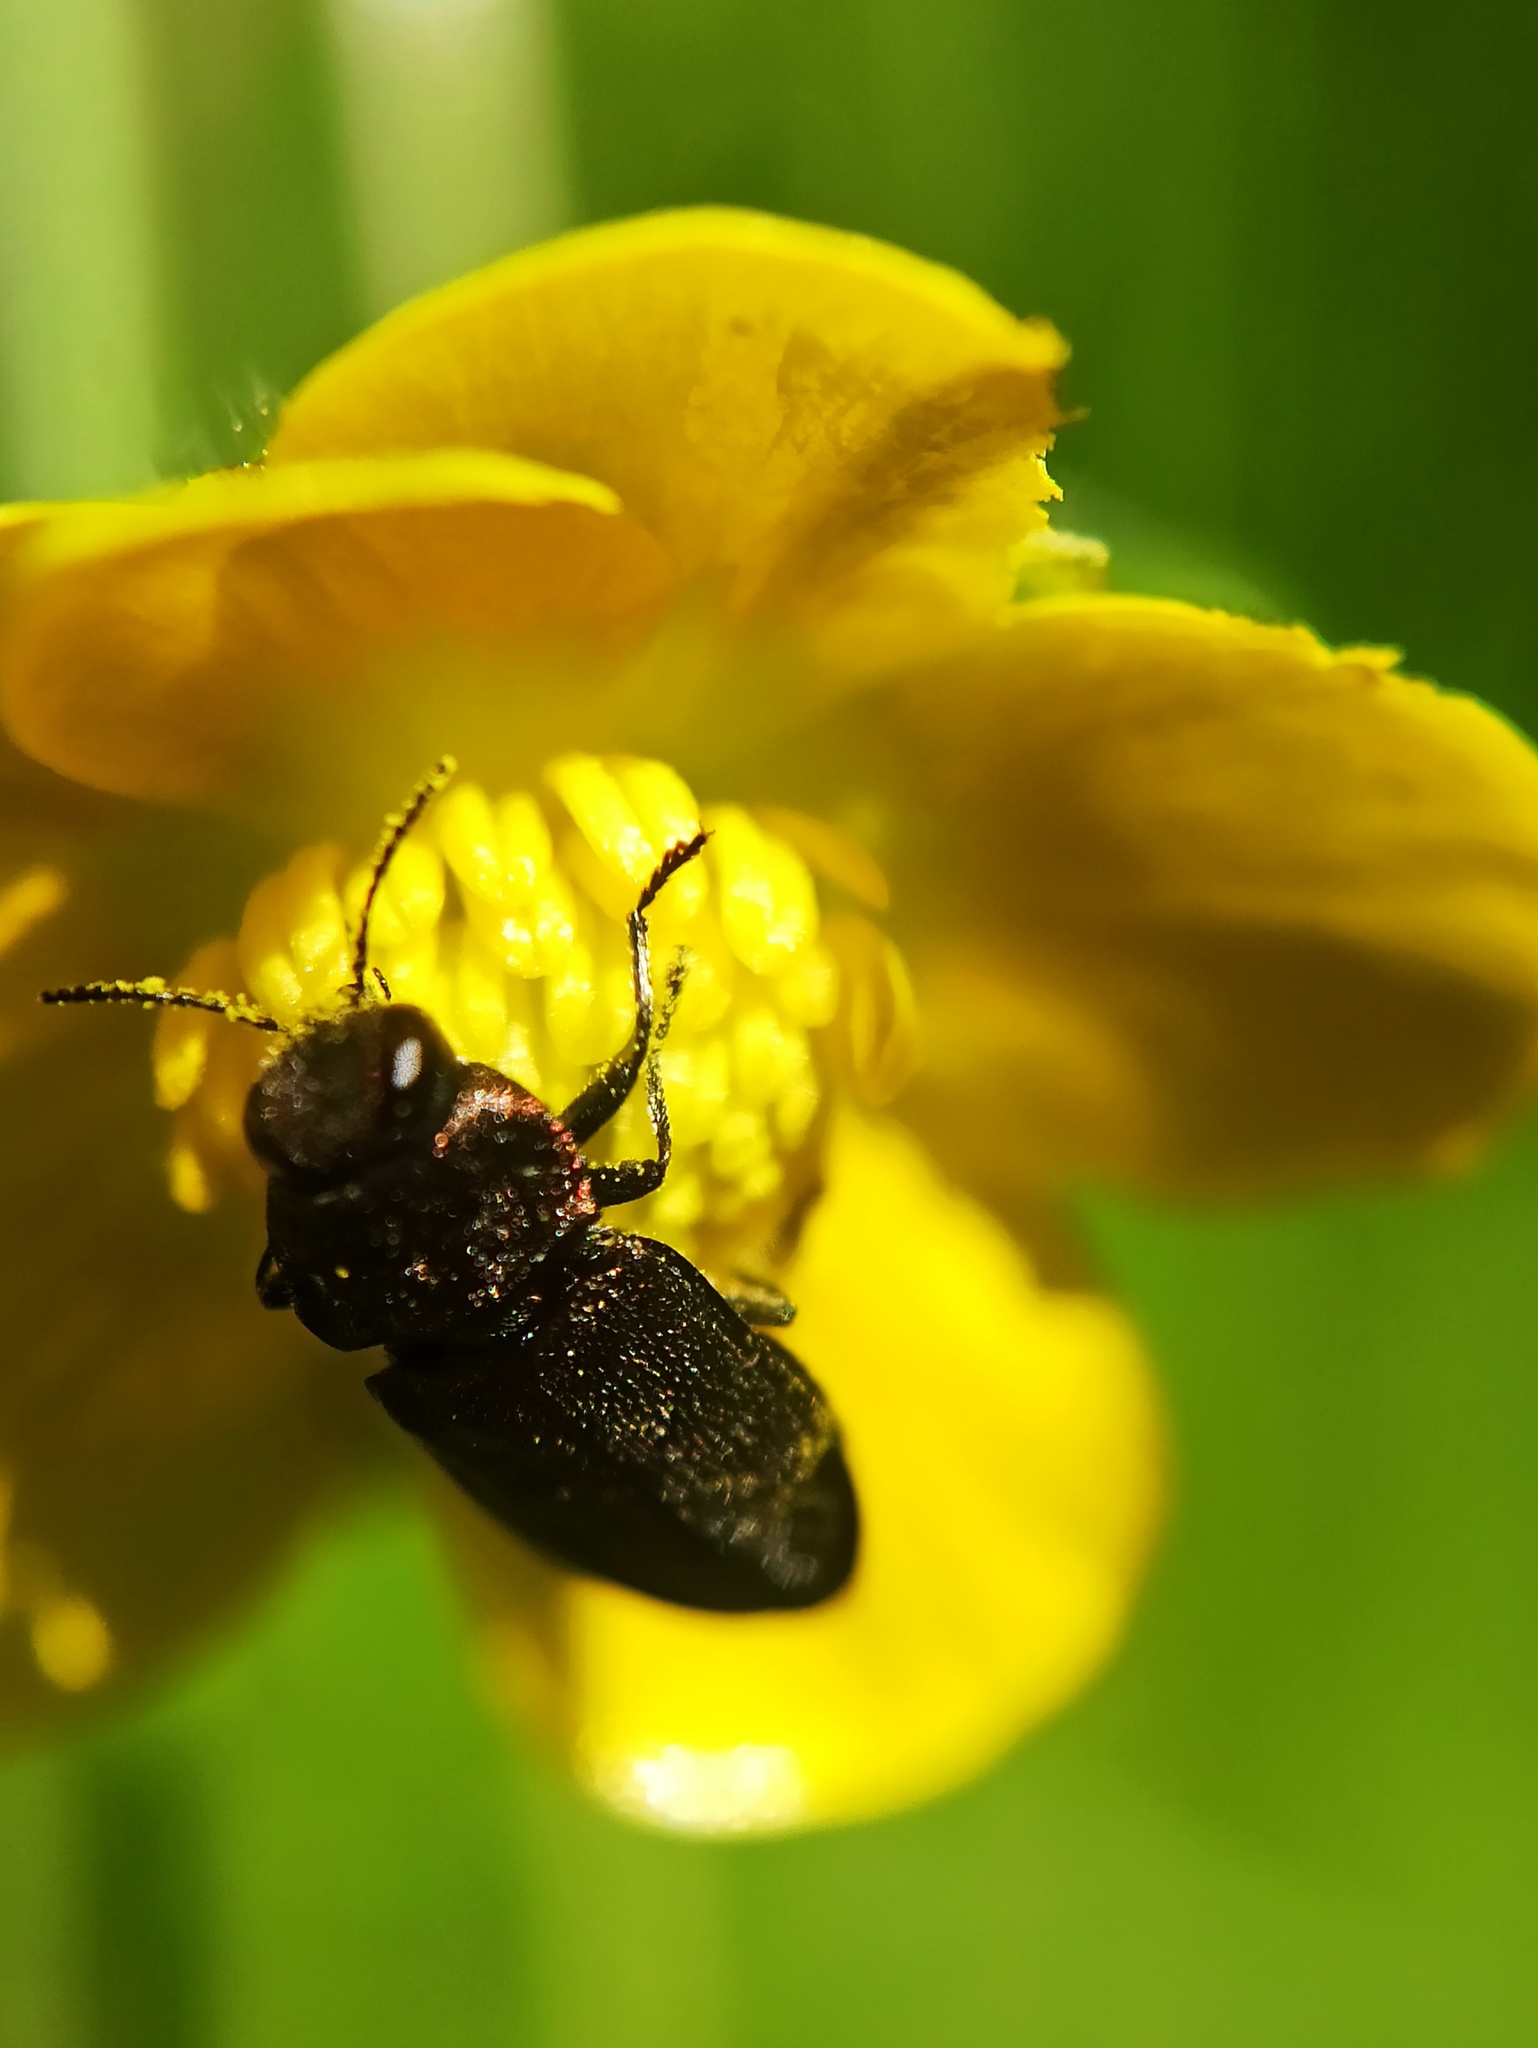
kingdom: Animalia
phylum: Arthropoda
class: Insecta
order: Coleoptera
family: Buprestidae
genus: Anthaxia
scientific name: Anthaxia morio
